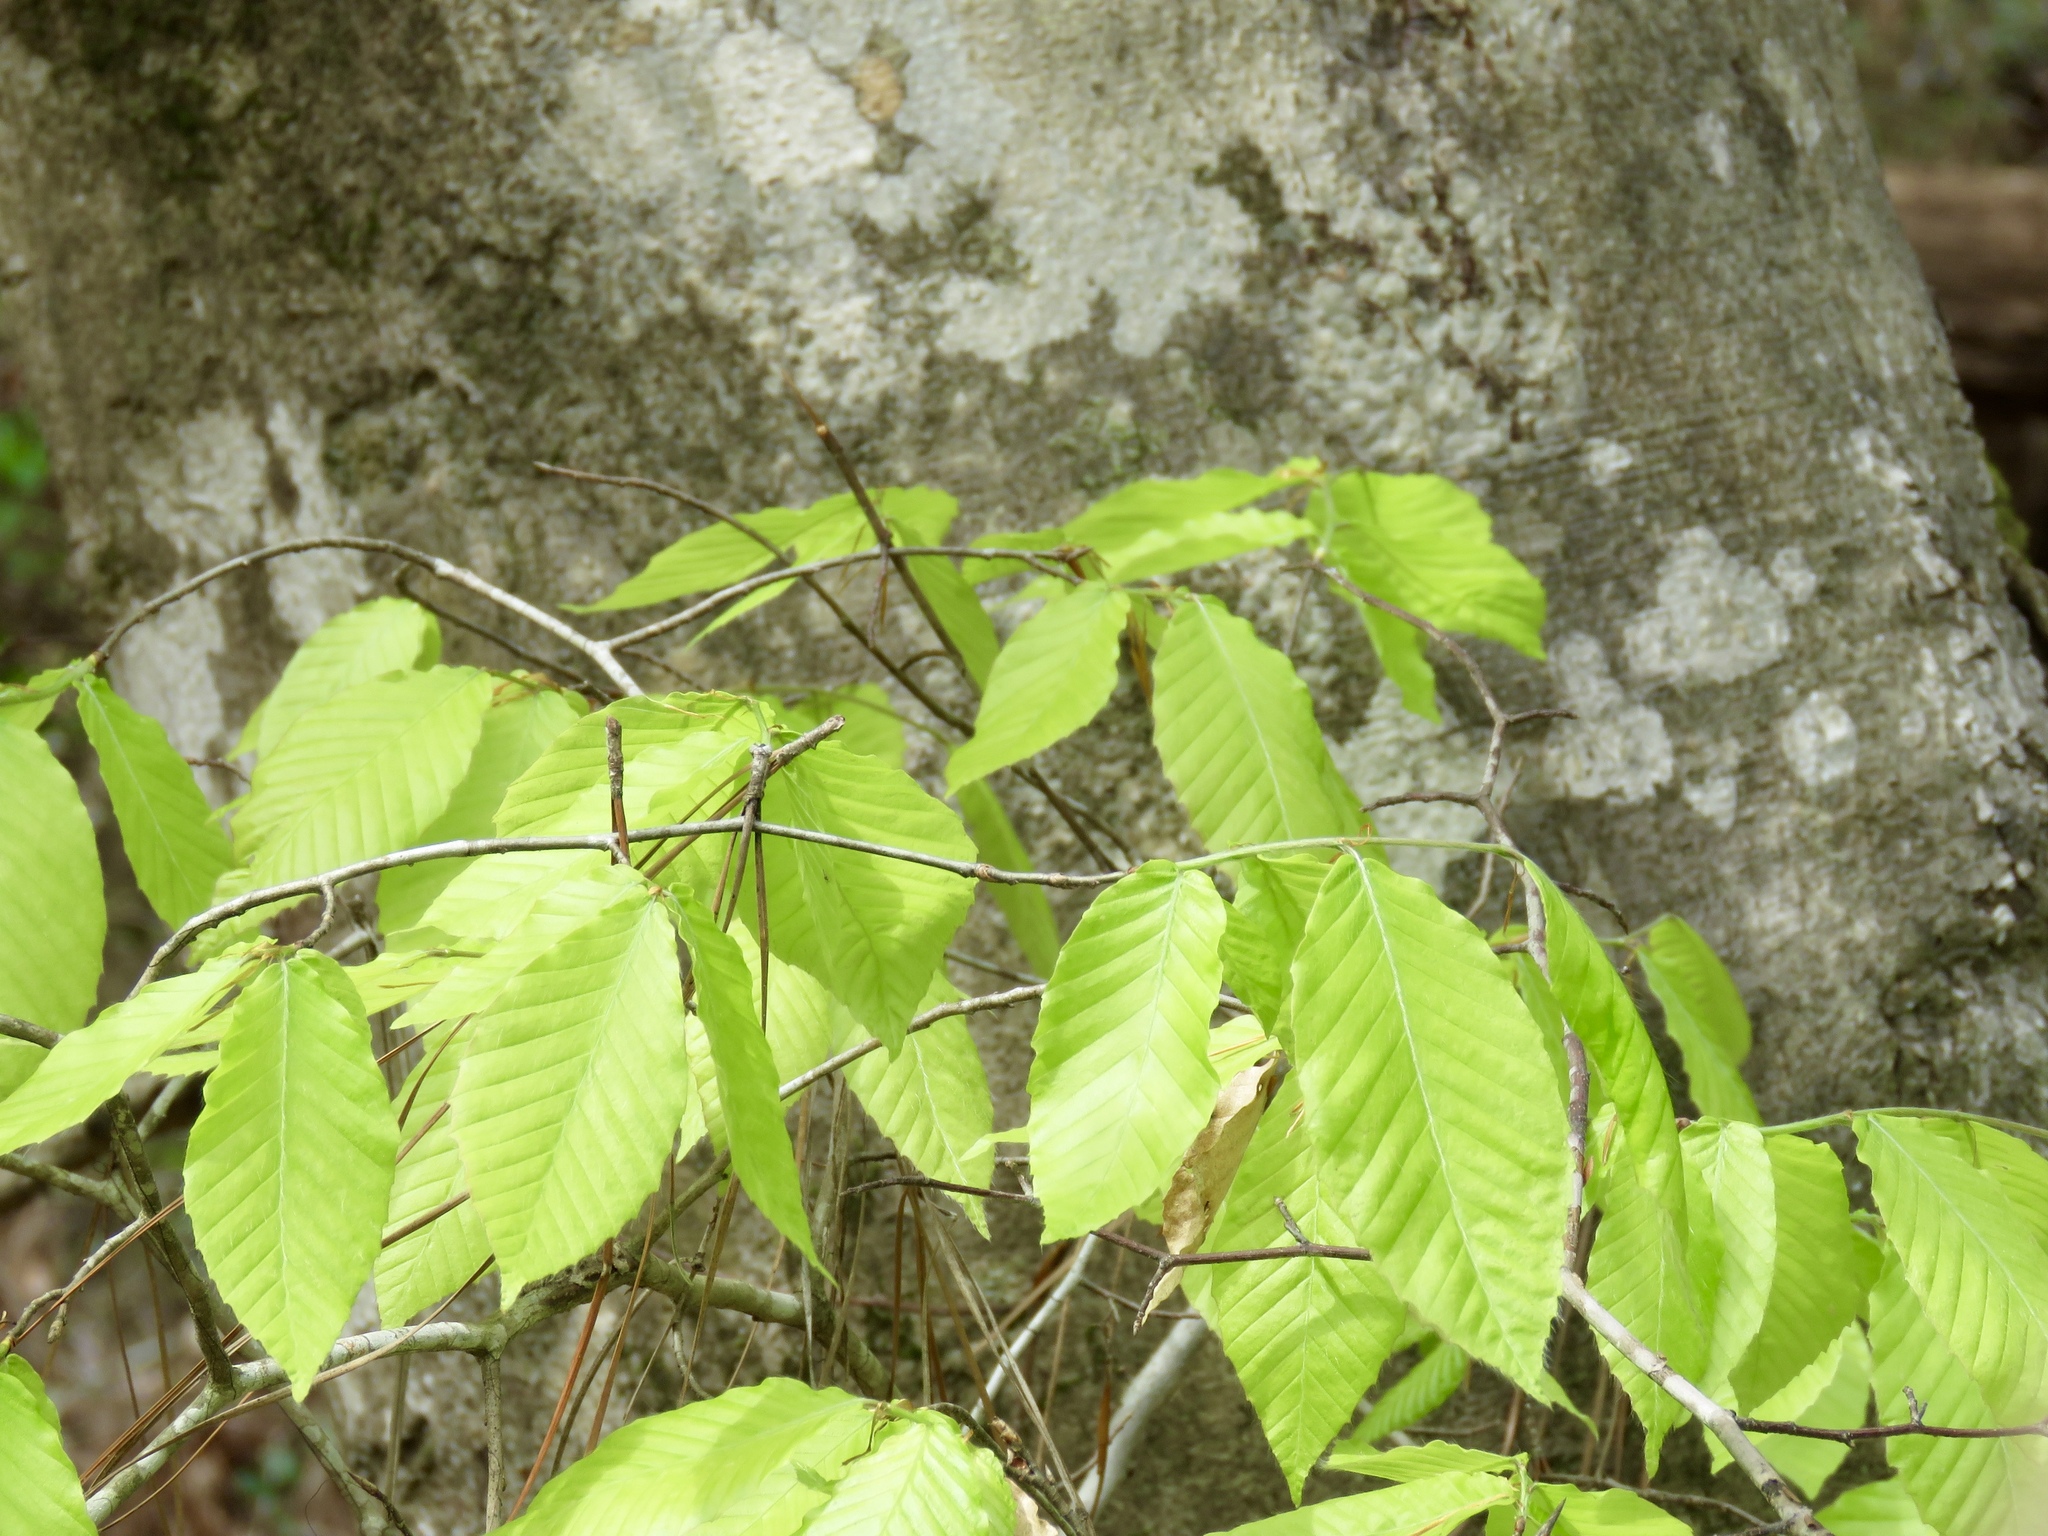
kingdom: Plantae
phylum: Tracheophyta
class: Magnoliopsida
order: Fagales
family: Fagaceae
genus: Fagus
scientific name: Fagus grandifolia
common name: American beech
